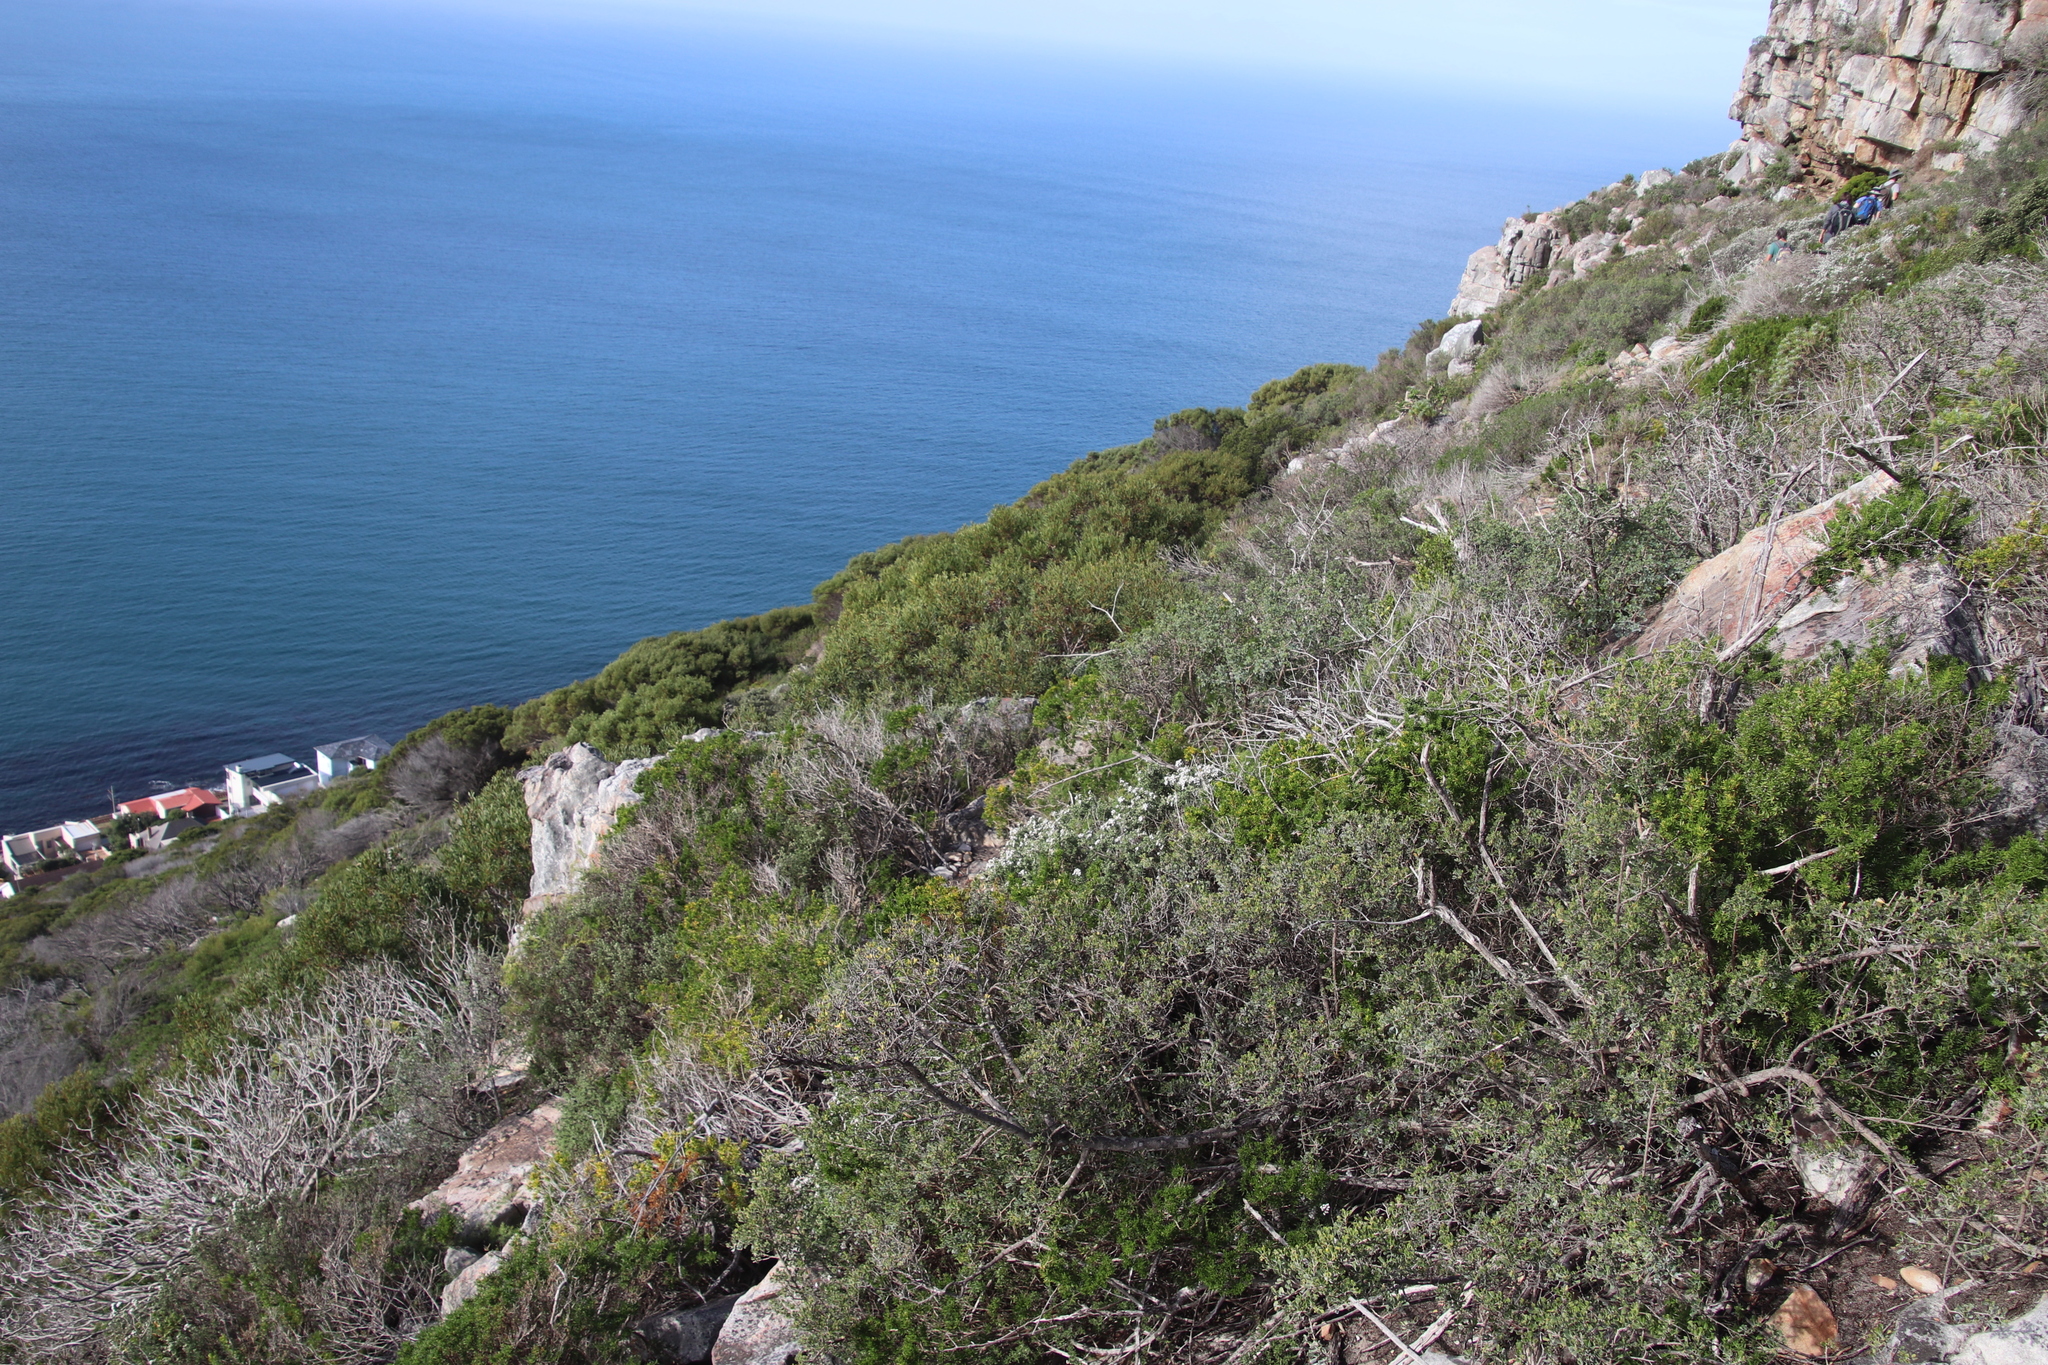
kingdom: Plantae
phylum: Tracheophyta
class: Magnoliopsida
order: Asterales
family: Asteraceae
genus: Eriocephalus
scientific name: Eriocephalus africanus
